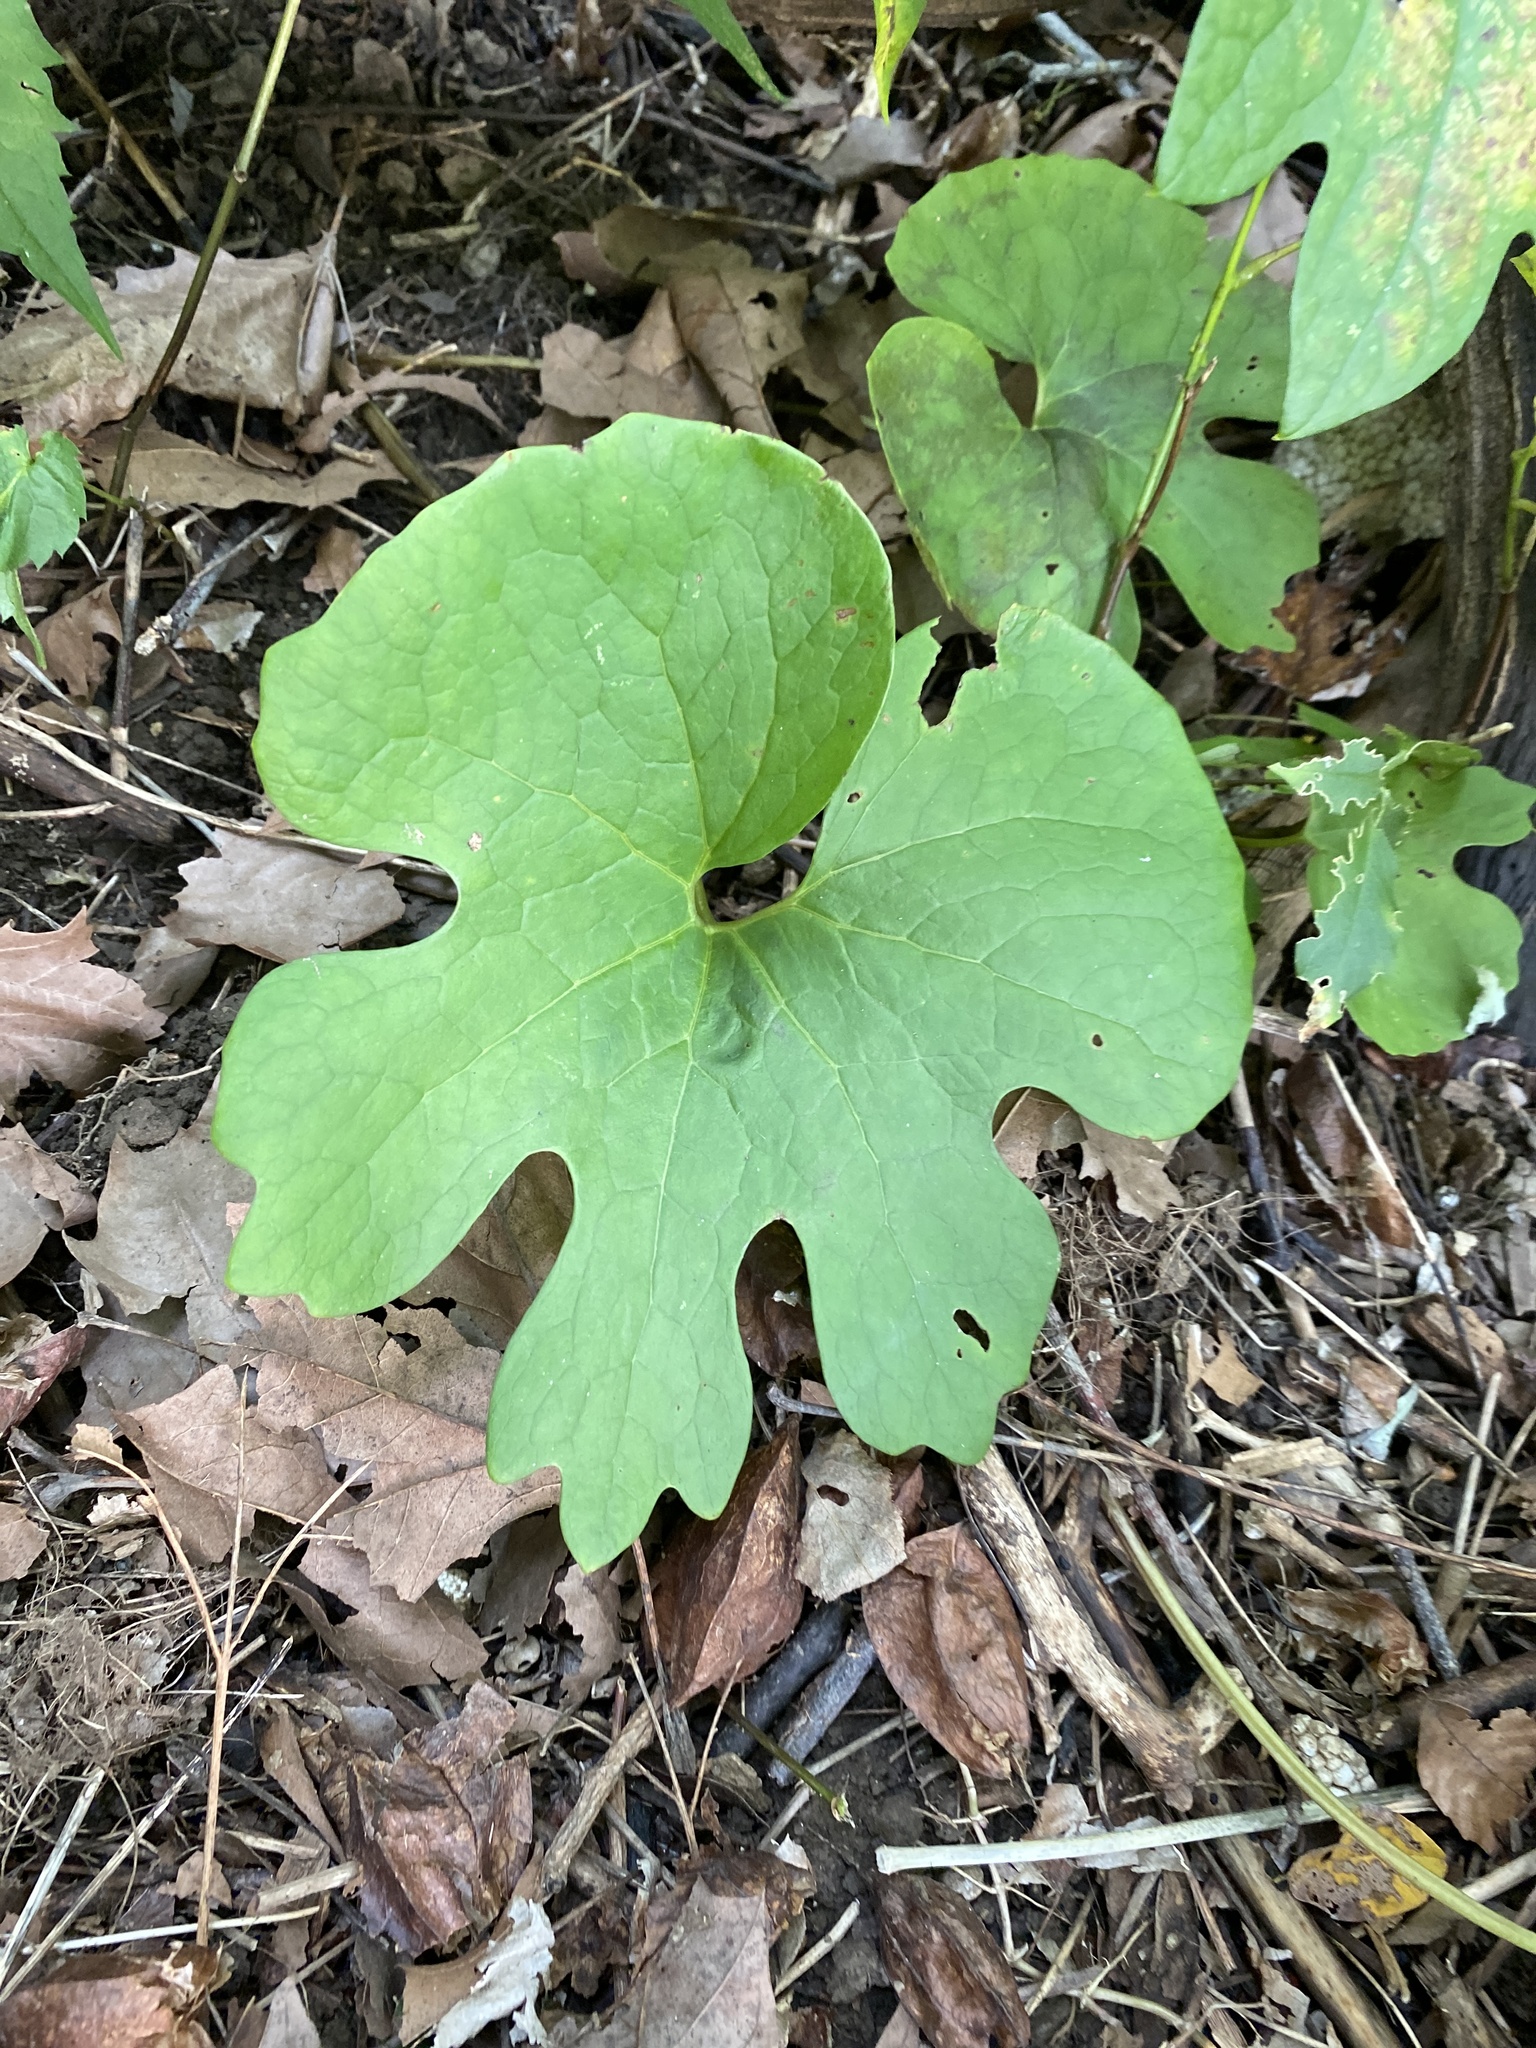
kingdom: Plantae
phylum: Tracheophyta
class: Magnoliopsida
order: Ranunculales
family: Papaveraceae
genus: Sanguinaria
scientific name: Sanguinaria canadensis
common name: Bloodroot
